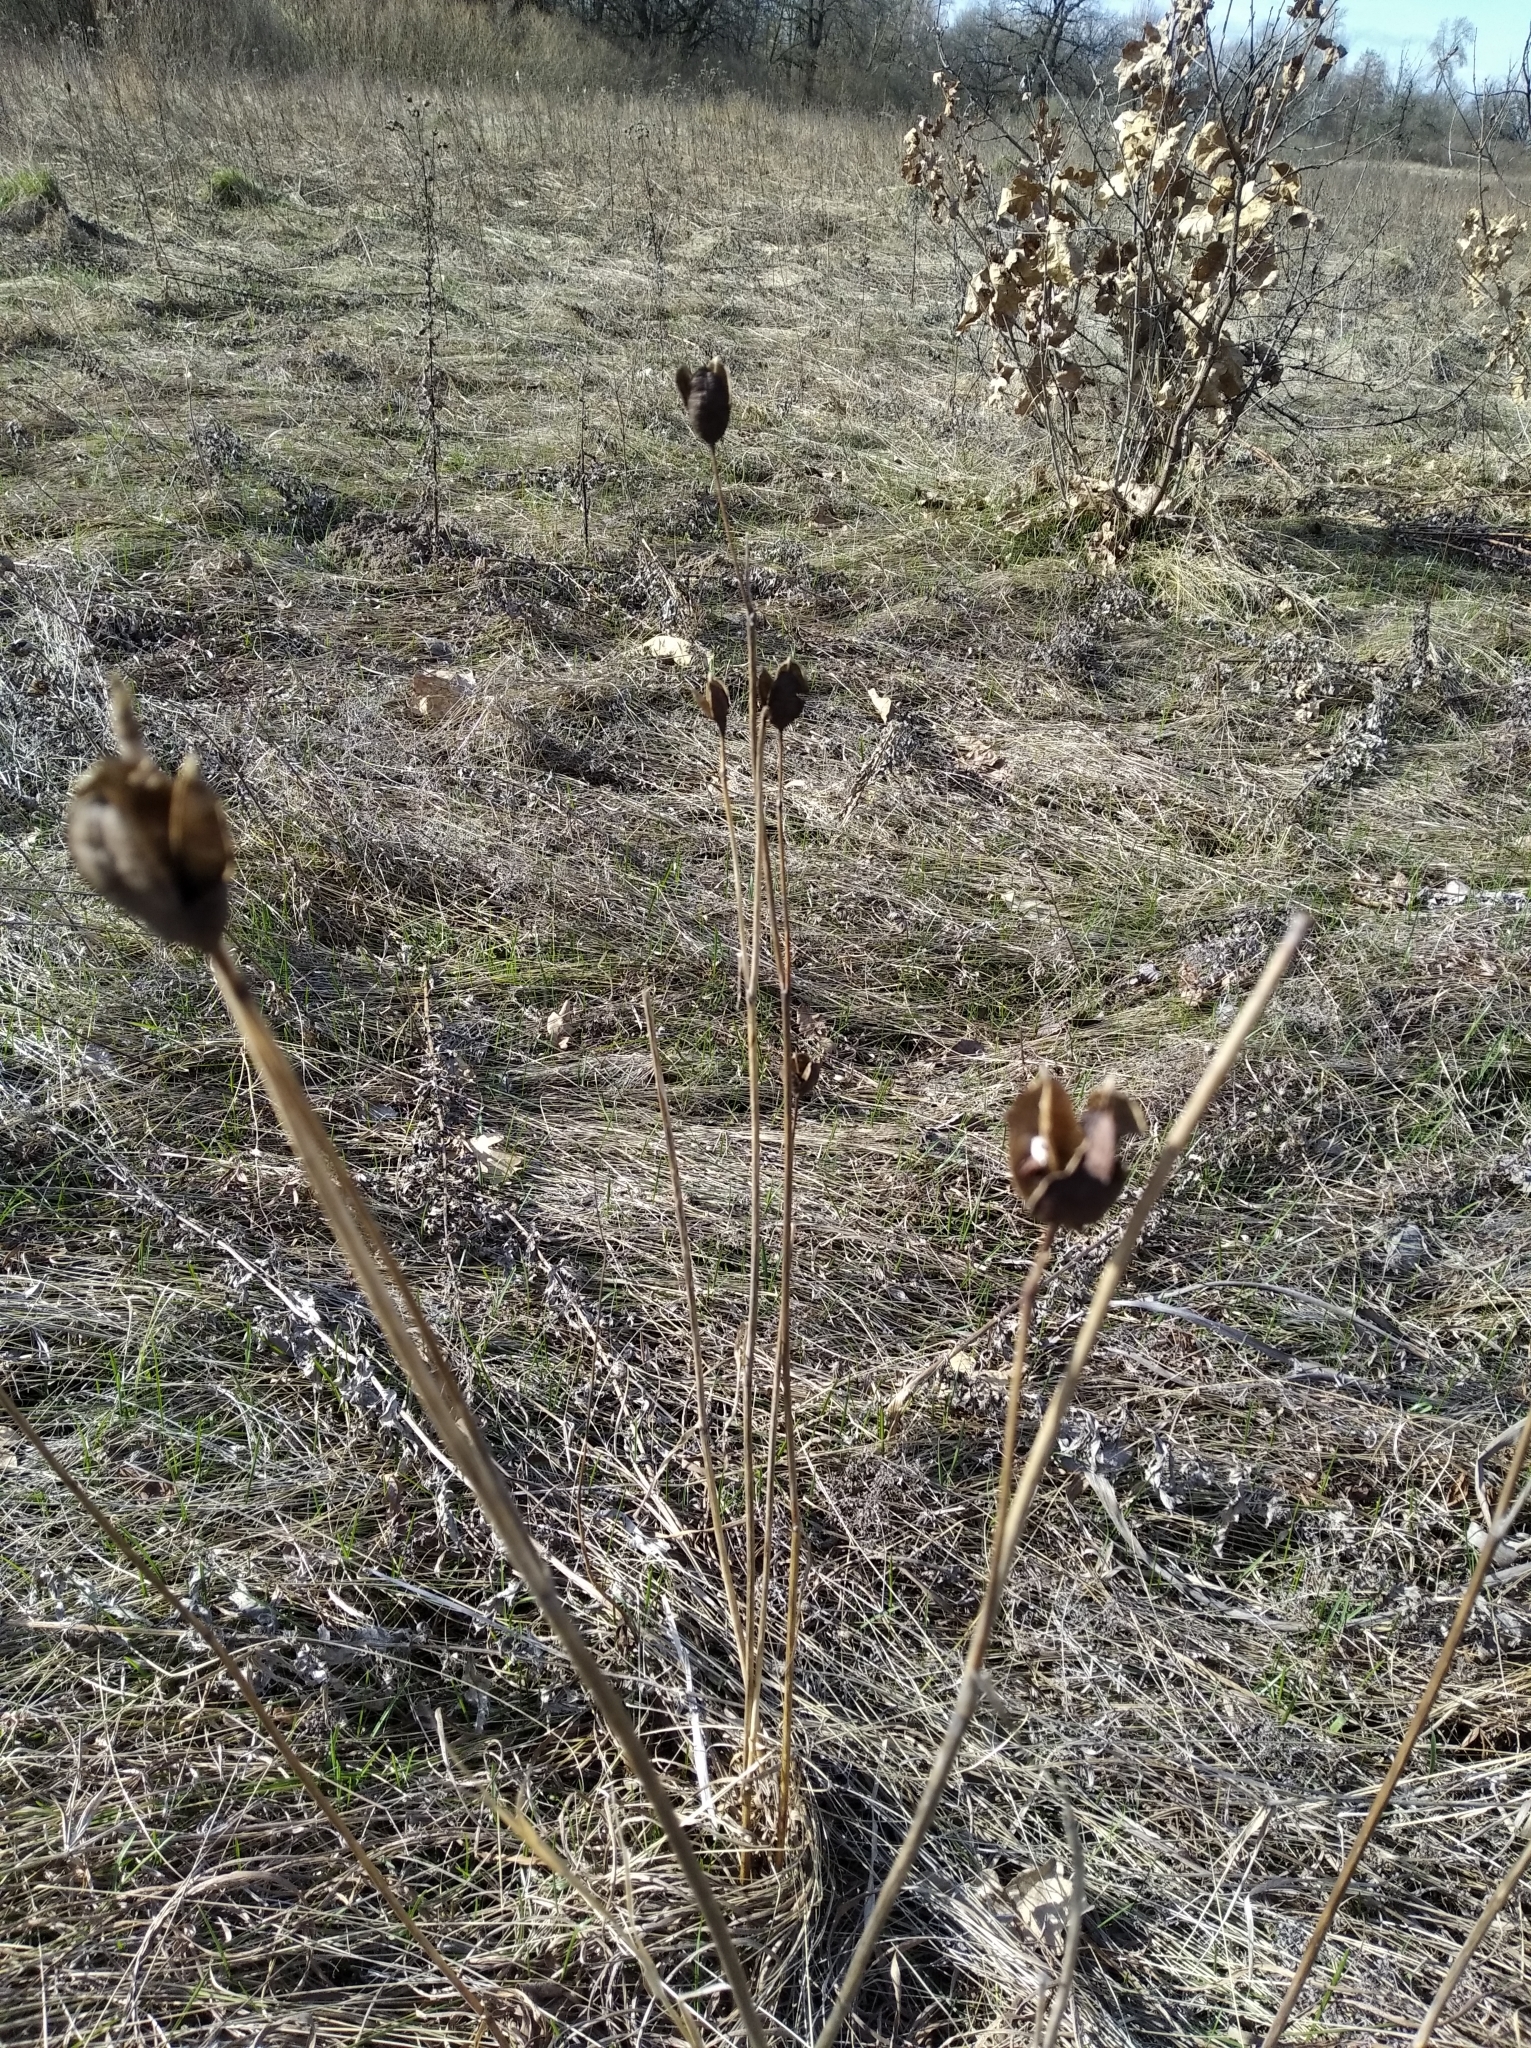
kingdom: Plantae
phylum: Tracheophyta
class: Liliopsida
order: Asparagales
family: Iridaceae
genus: Iris
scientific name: Iris sibirica
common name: Siberian iris
